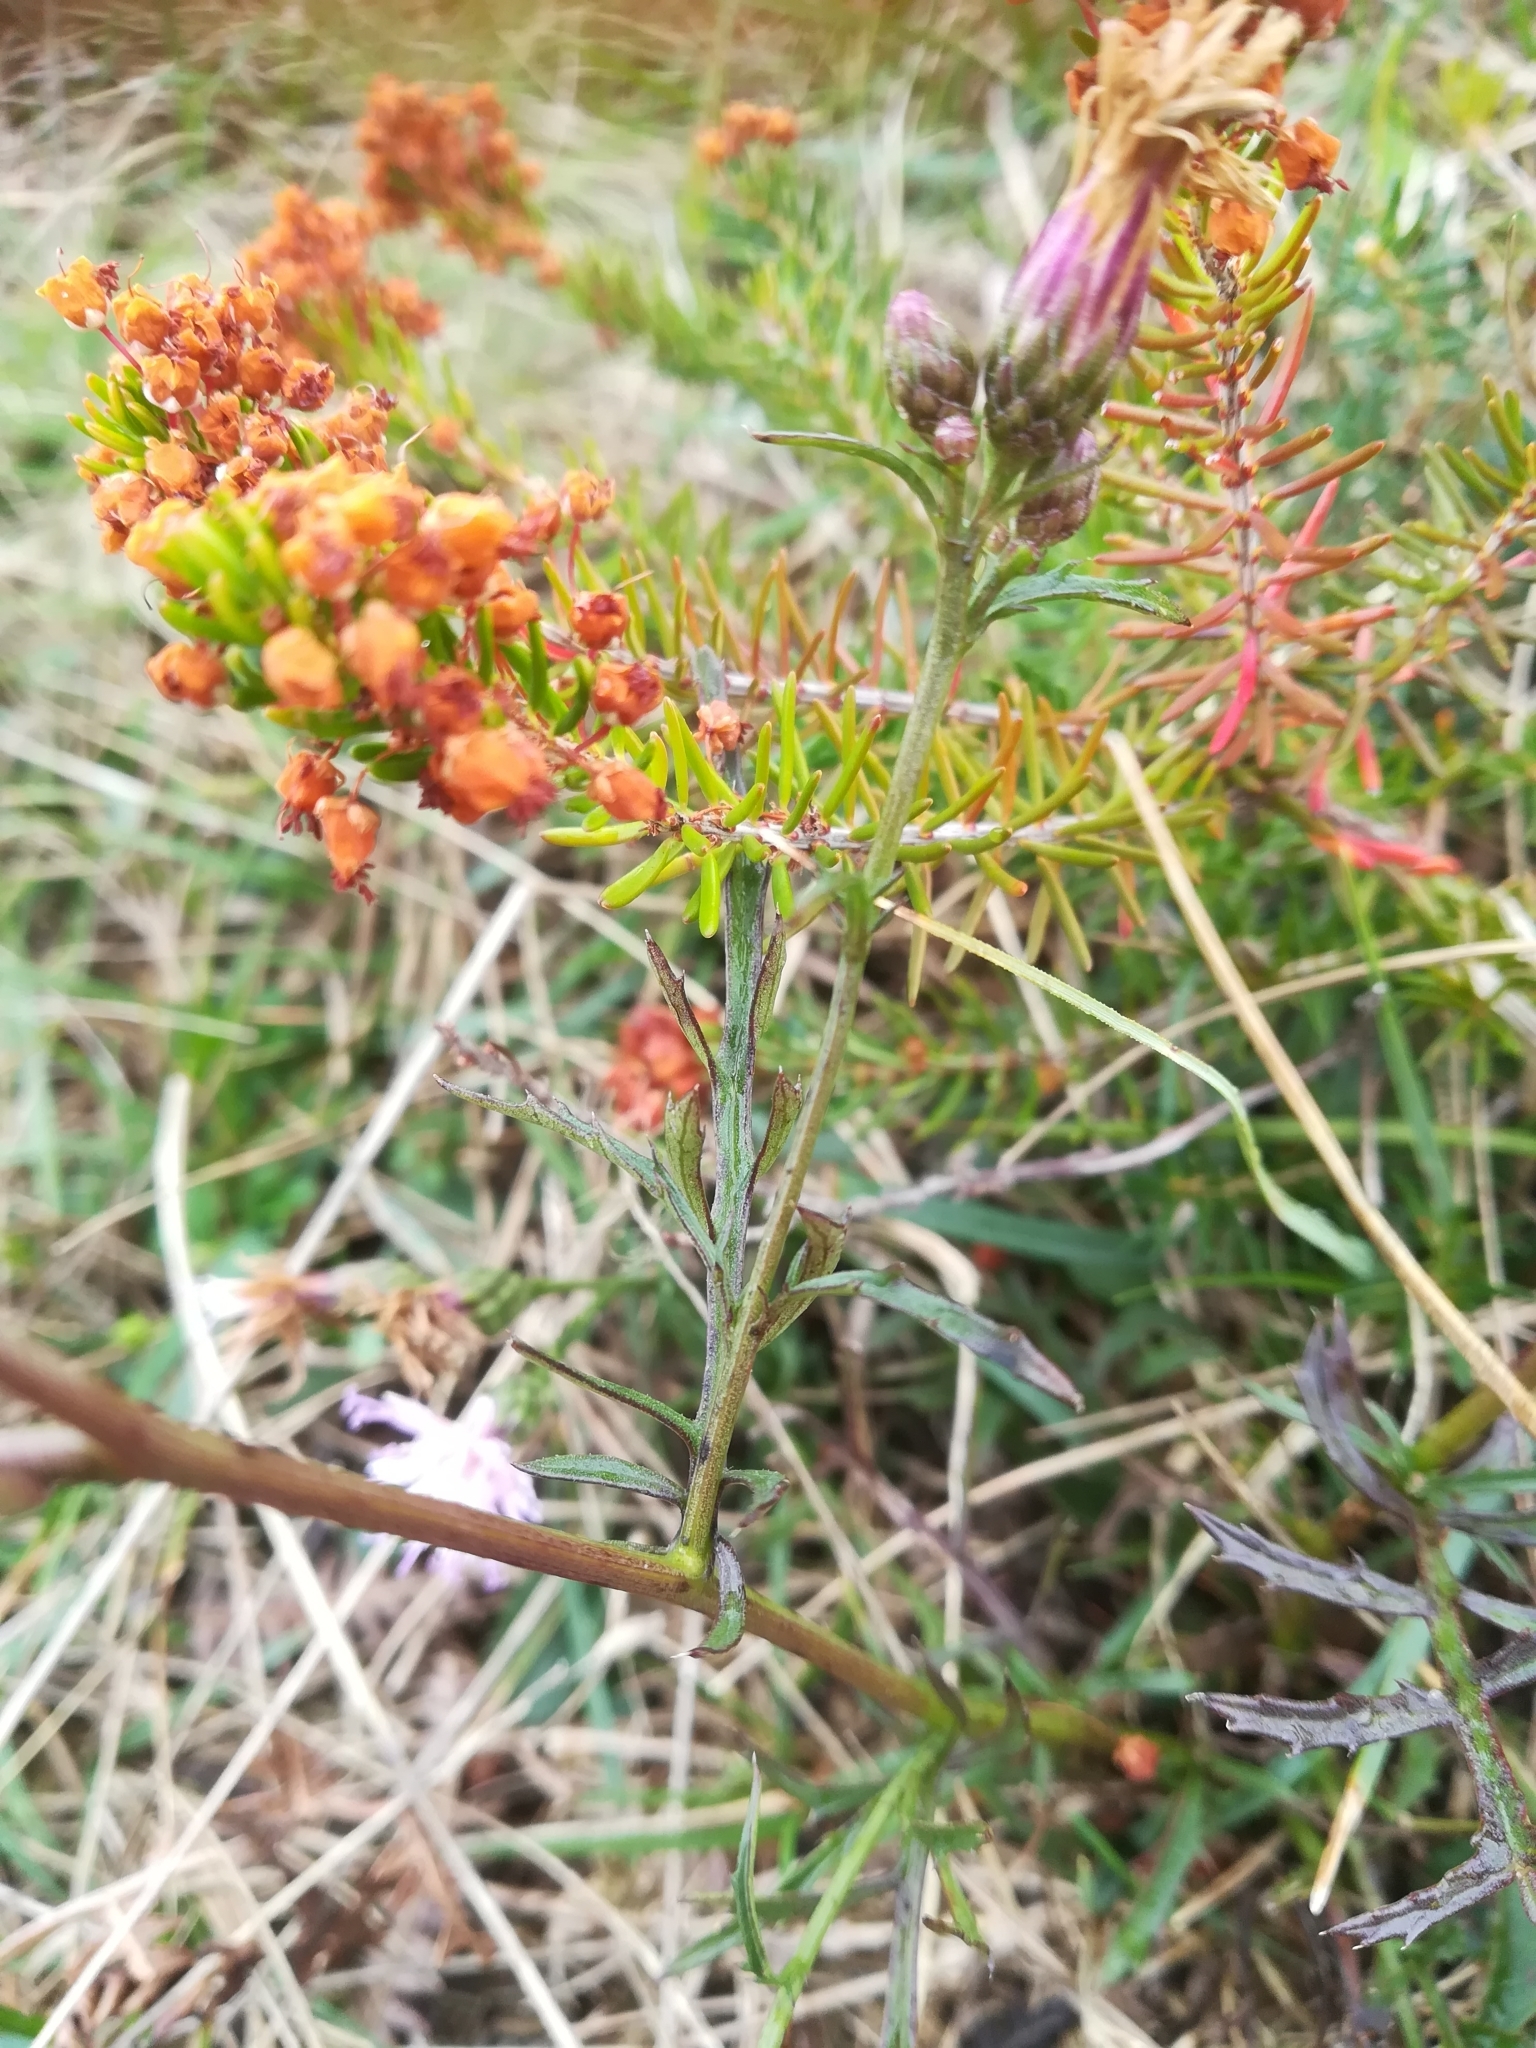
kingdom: Plantae
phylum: Tracheophyta
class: Magnoliopsida
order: Asterales
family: Asteraceae
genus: Serratula
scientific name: Serratula tinctoria
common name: Saw-wort
